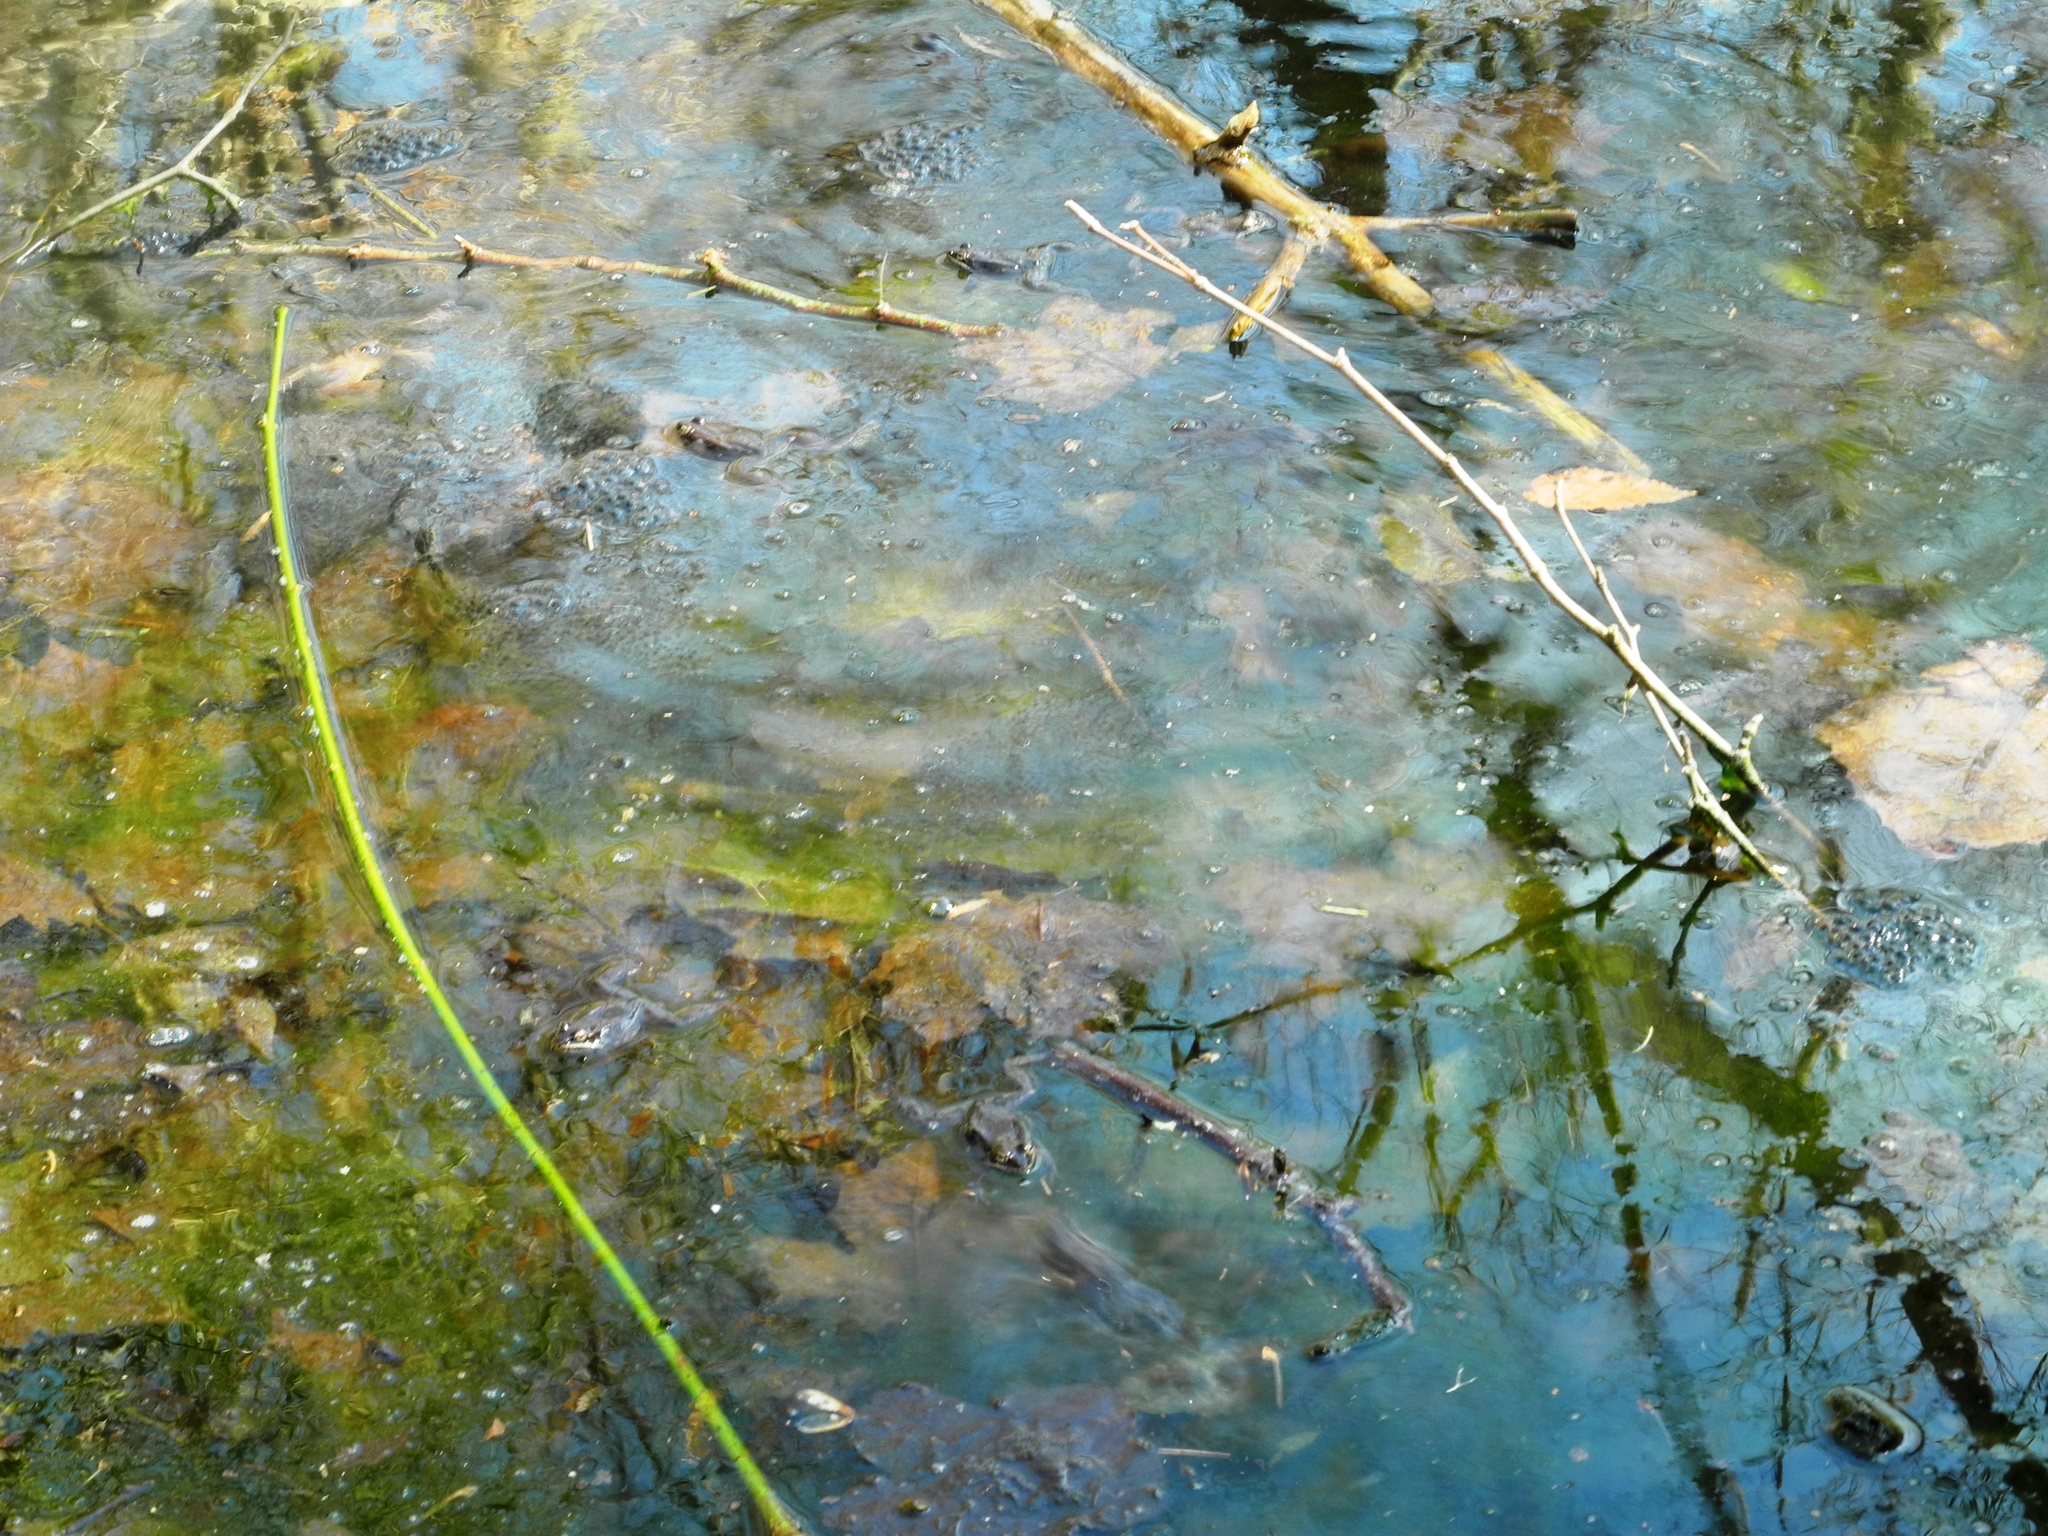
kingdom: Animalia
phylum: Chordata
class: Amphibia
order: Anura
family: Ranidae
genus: Lithobates
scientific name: Lithobates sylvaticus
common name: Wood frog
